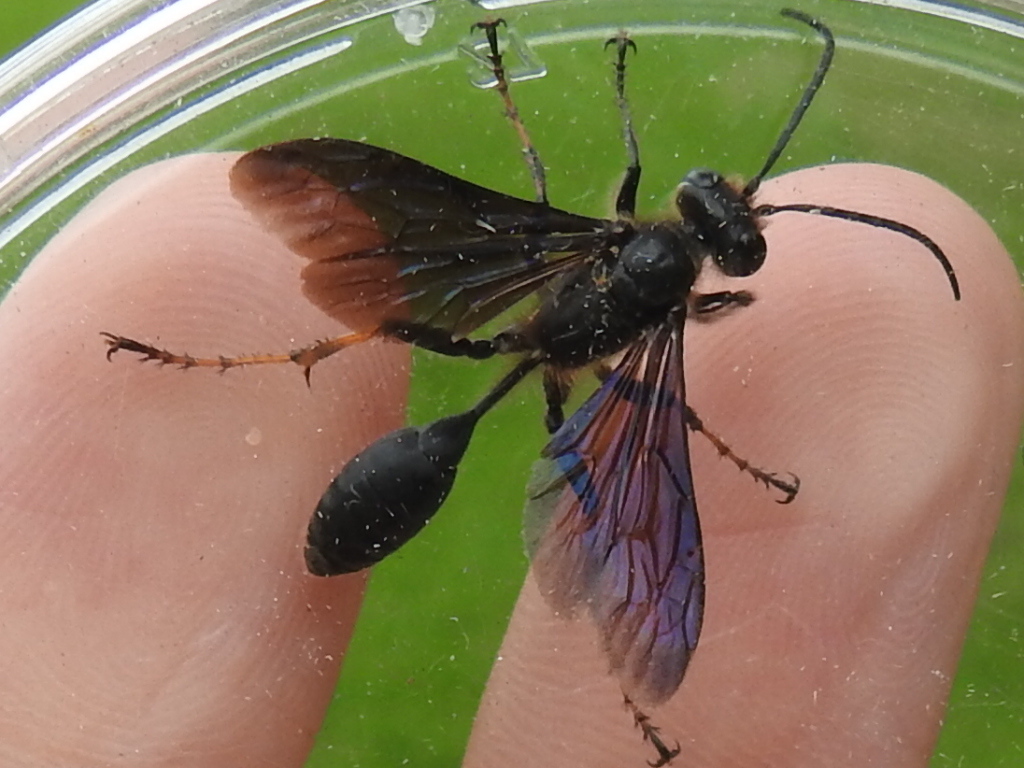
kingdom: Animalia
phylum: Arthropoda
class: Insecta
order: Hymenoptera
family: Sphecidae
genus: Isodontia
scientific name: Isodontia auripes
